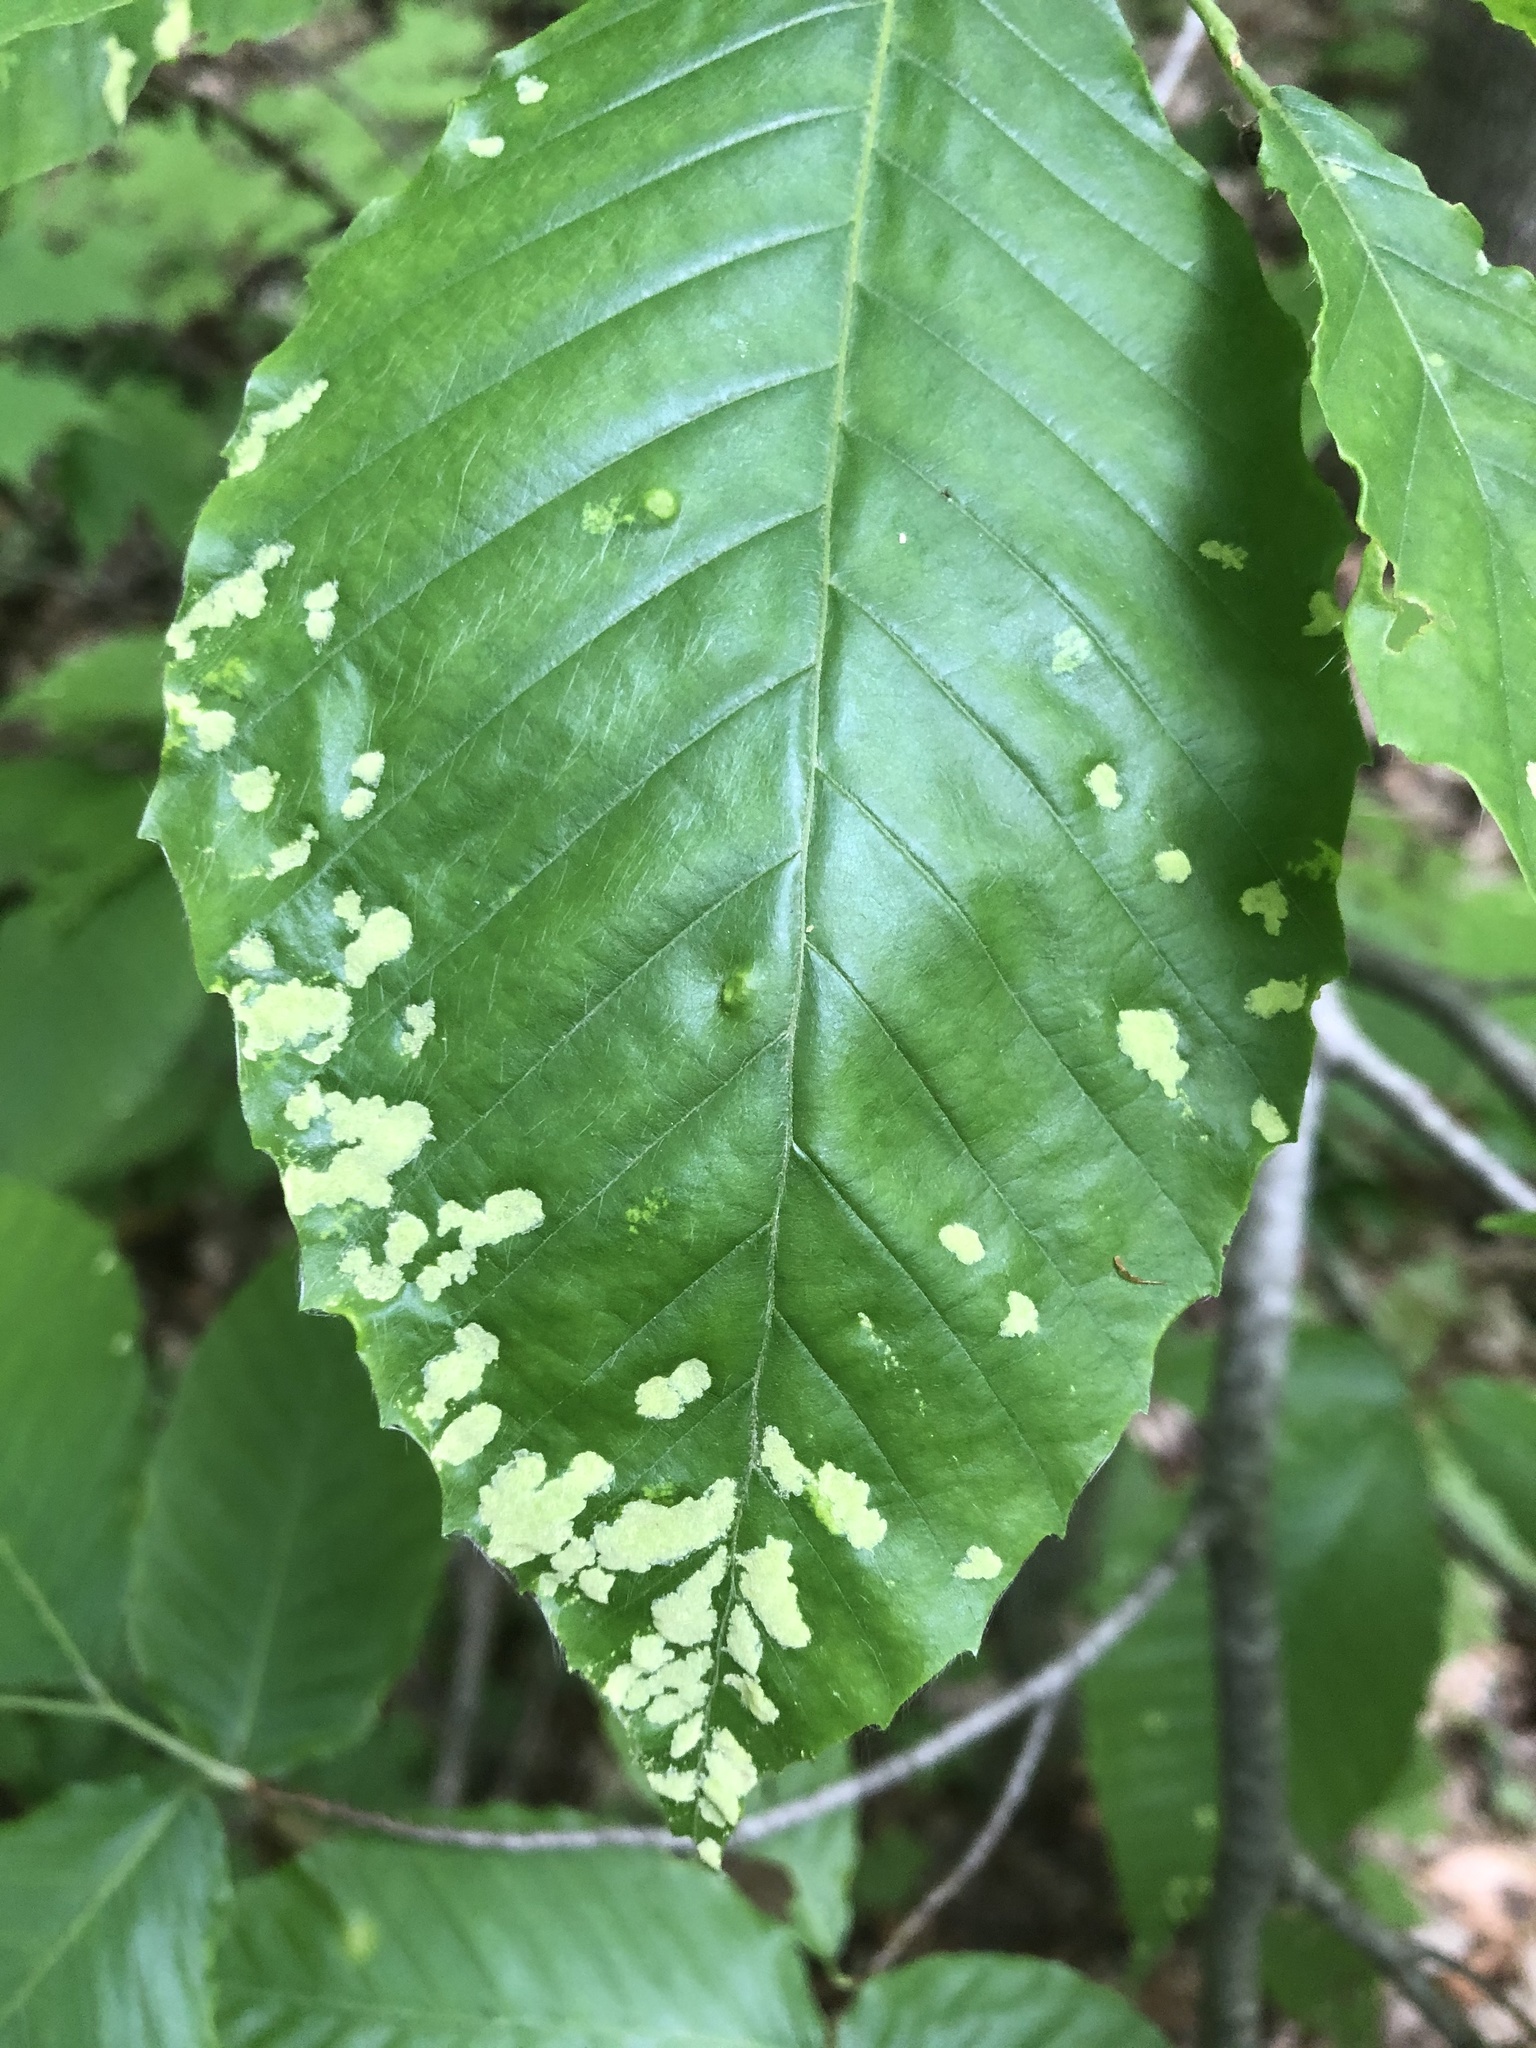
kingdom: Animalia
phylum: Arthropoda
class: Arachnida
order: Trombidiformes
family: Eriophyidae
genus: Acalitus
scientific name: Acalitus
